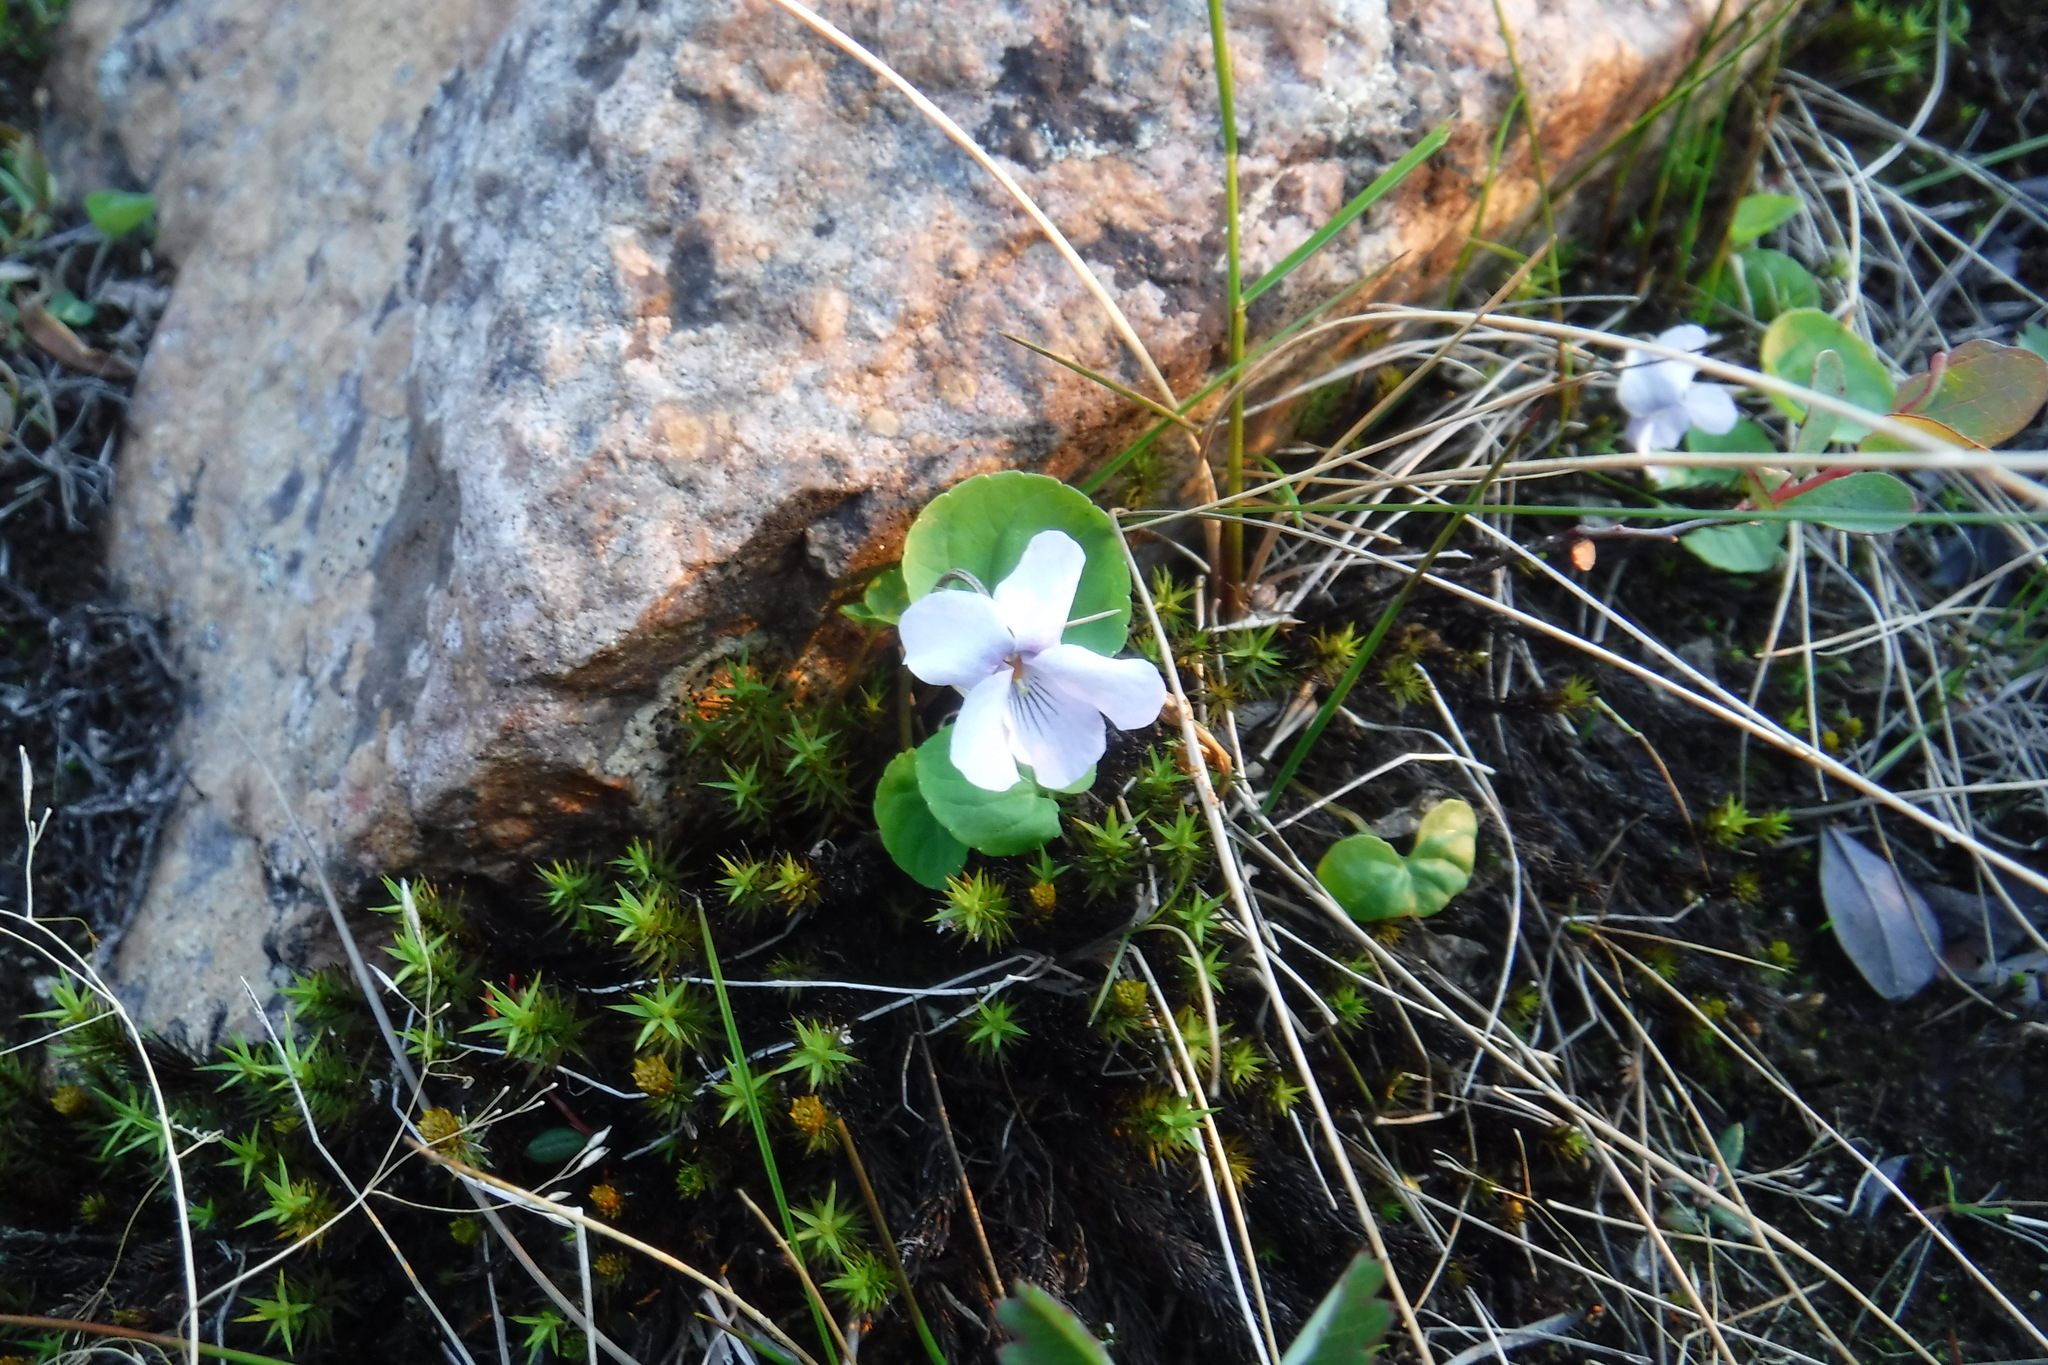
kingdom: Plantae
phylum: Tracheophyta
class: Magnoliopsida
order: Malpighiales
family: Violaceae
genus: Viola
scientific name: Viola epipsila
